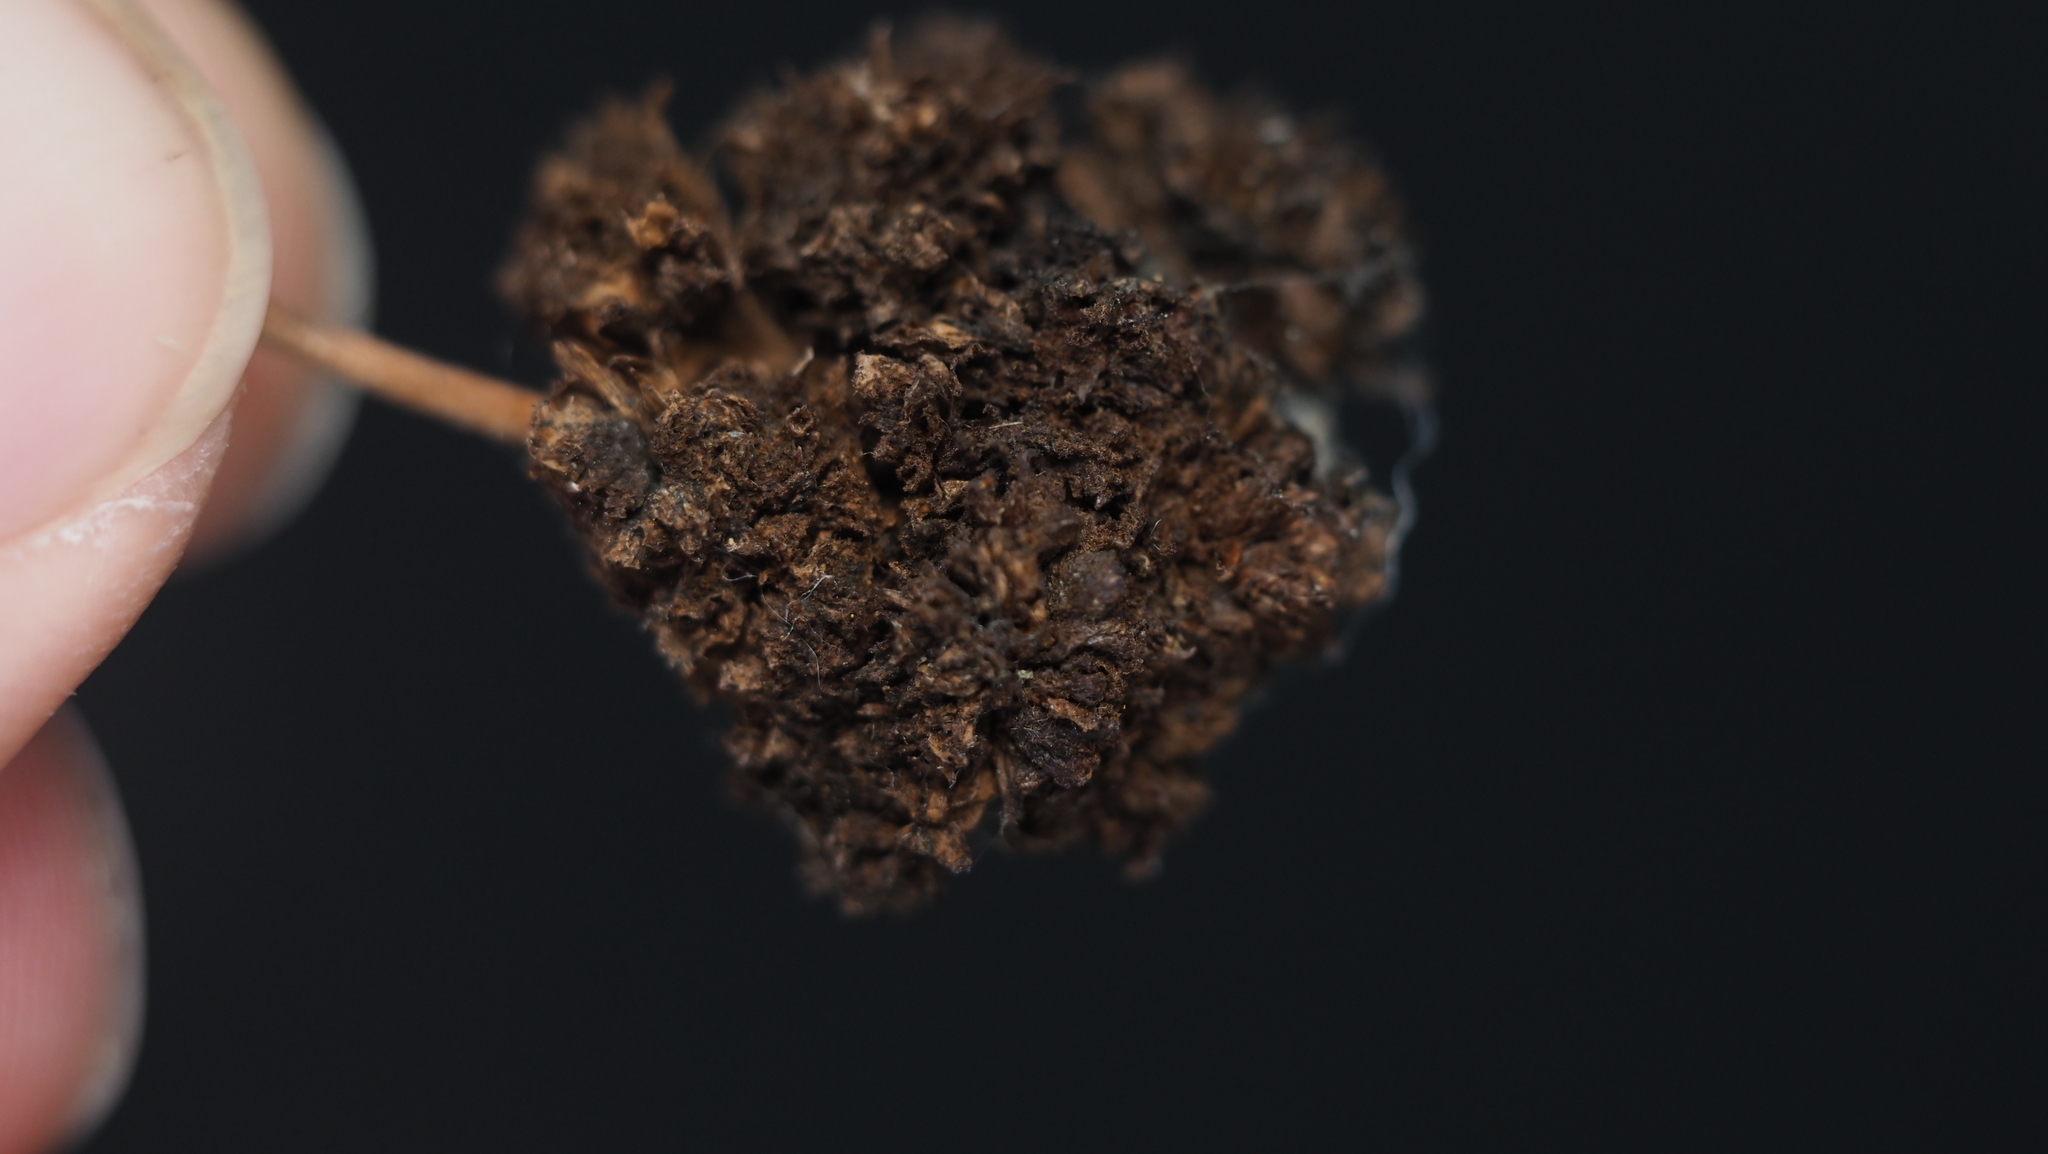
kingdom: Animalia
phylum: Arthropoda
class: Arachnida
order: Trombidiformes
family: Eriophyidae
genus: Aceria
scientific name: Aceria fraxiniflora
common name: Ash flower gall mite
